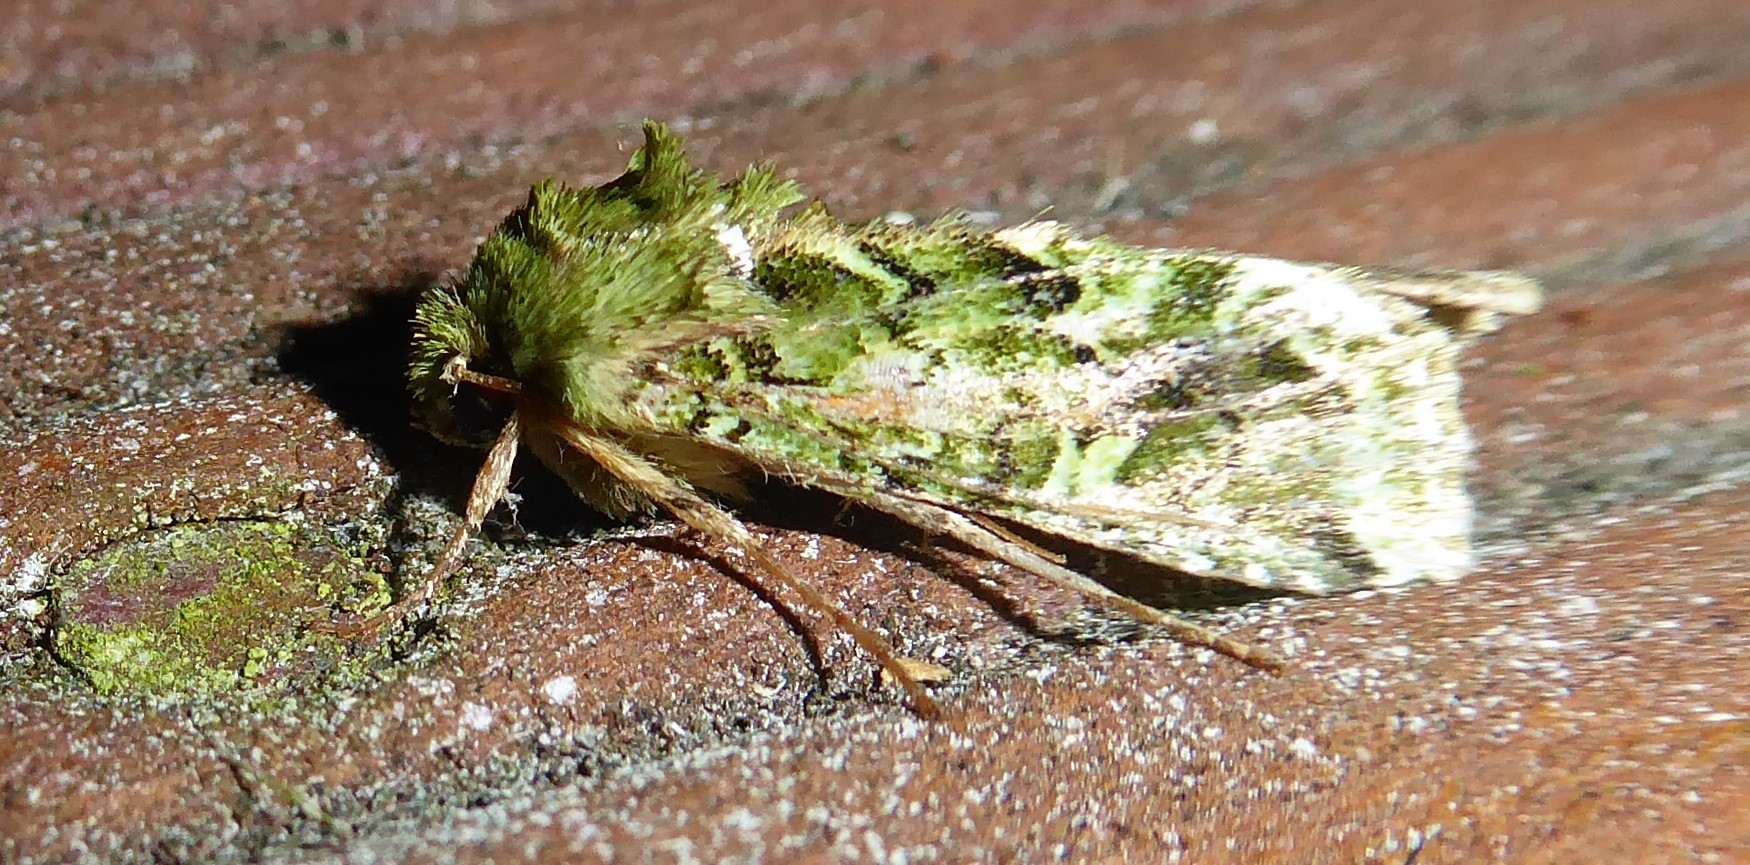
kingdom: Animalia
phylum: Arthropoda
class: Insecta
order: Lepidoptera
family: Noctuidae
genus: Feredayia
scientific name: Feredayia grammosa
